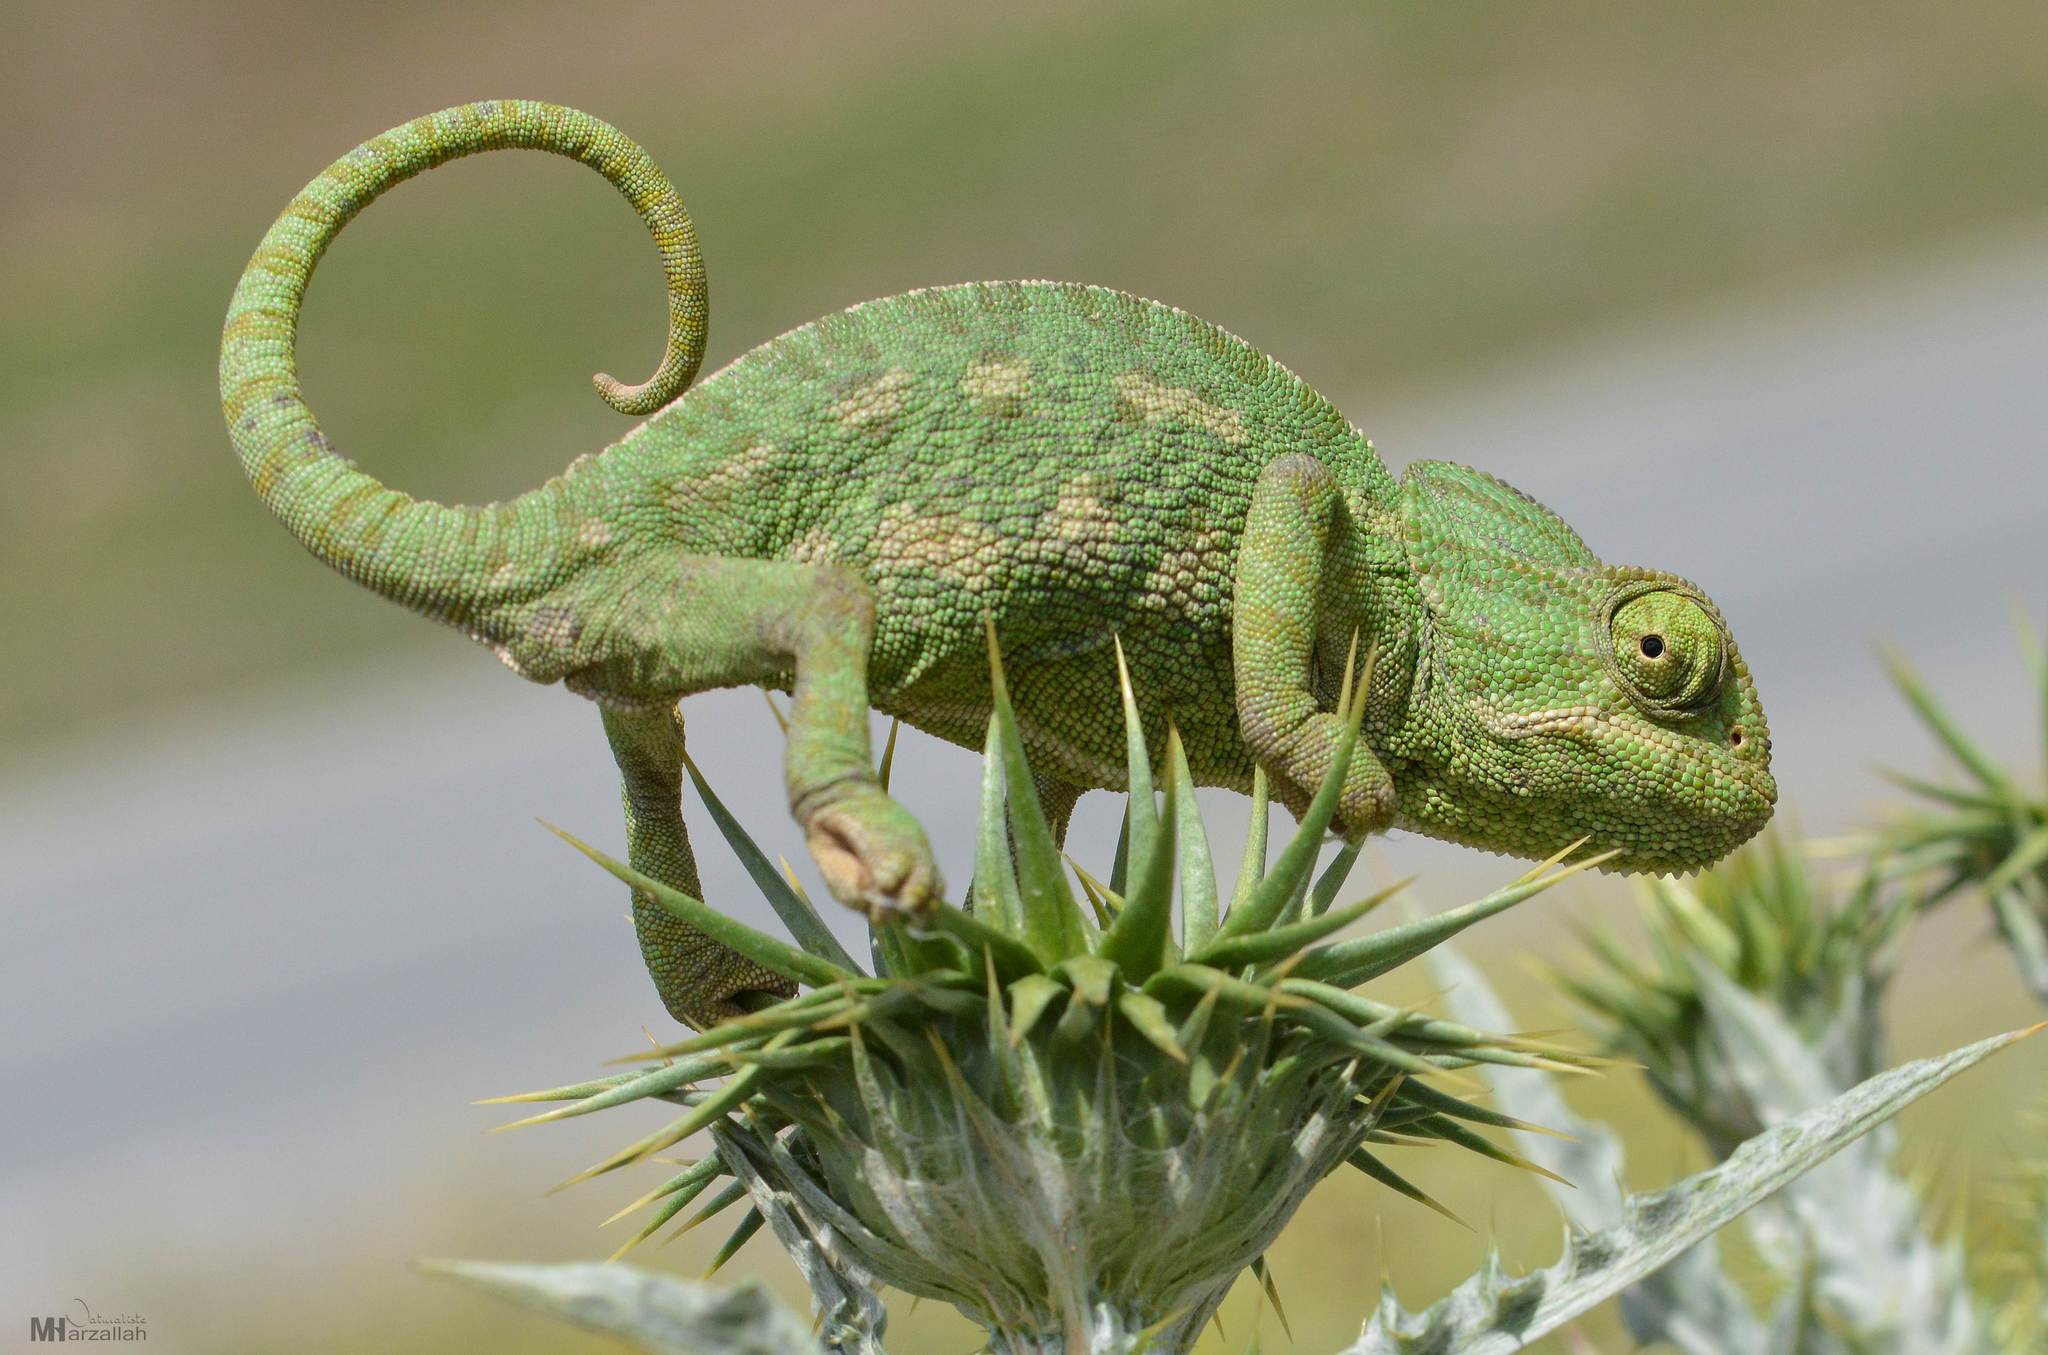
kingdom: Animalia
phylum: Chordata
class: Squamata
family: Chamaeleonidae
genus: Chamaeleo
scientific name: Chamaeleo chamaeleon
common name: Mediterranean chameleon
